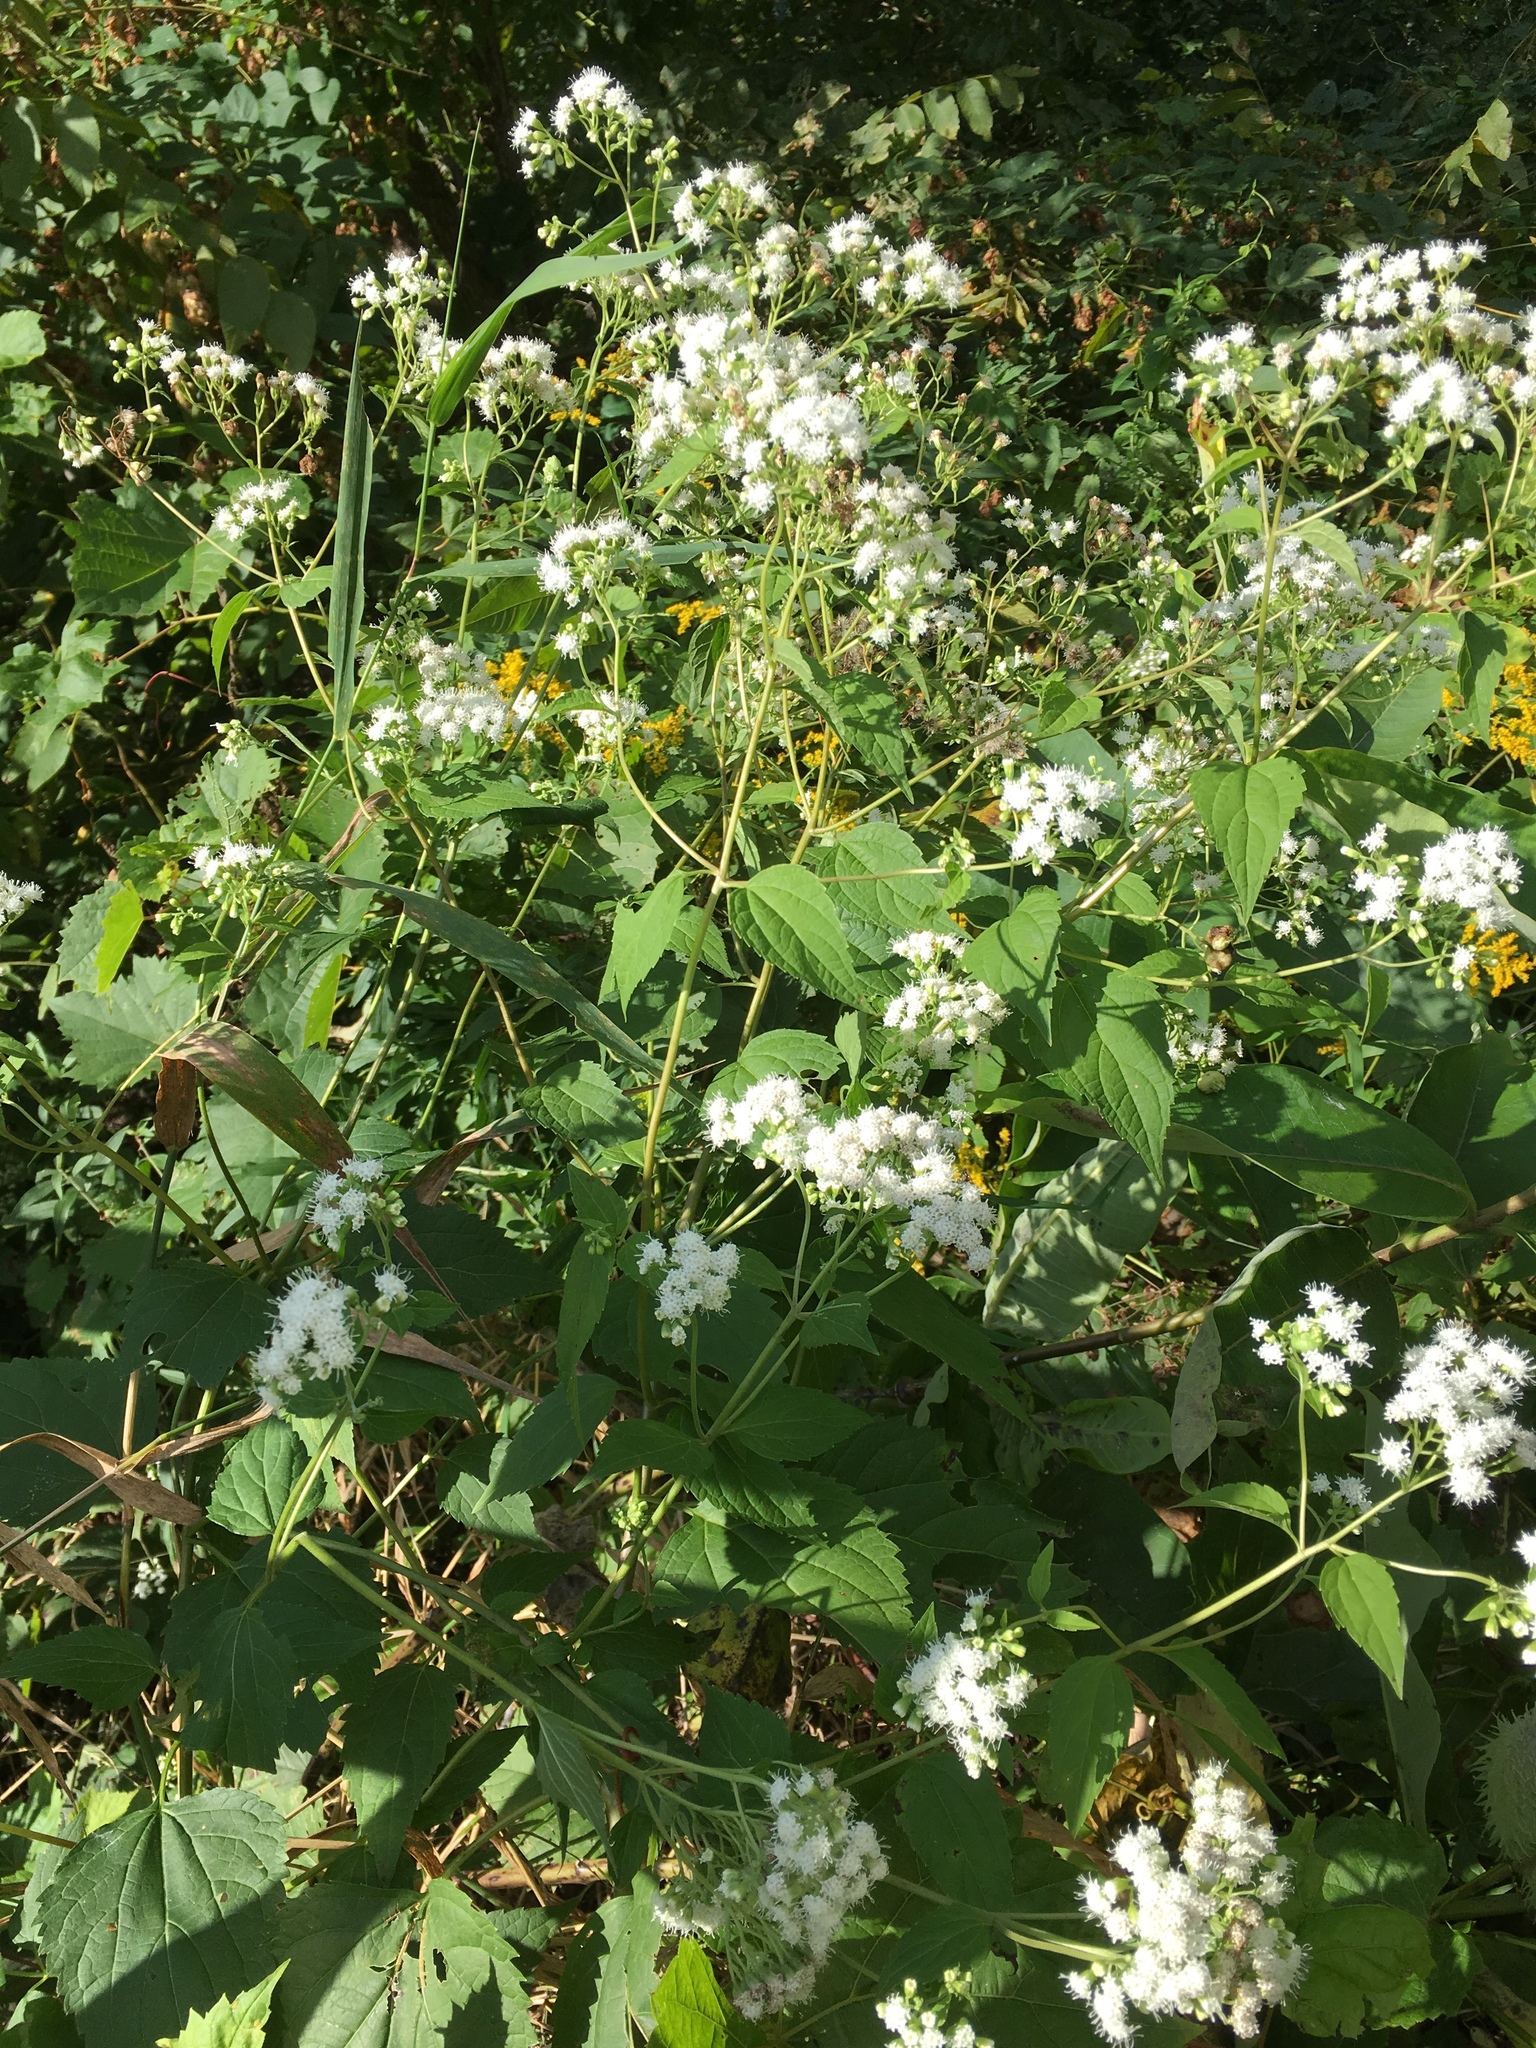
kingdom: Plantae
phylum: Tracheophyta
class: Magnoliopsida
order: Asterales
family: Asteraceae
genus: Ageratina
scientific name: Ageratina altissima
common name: White snakeroot
